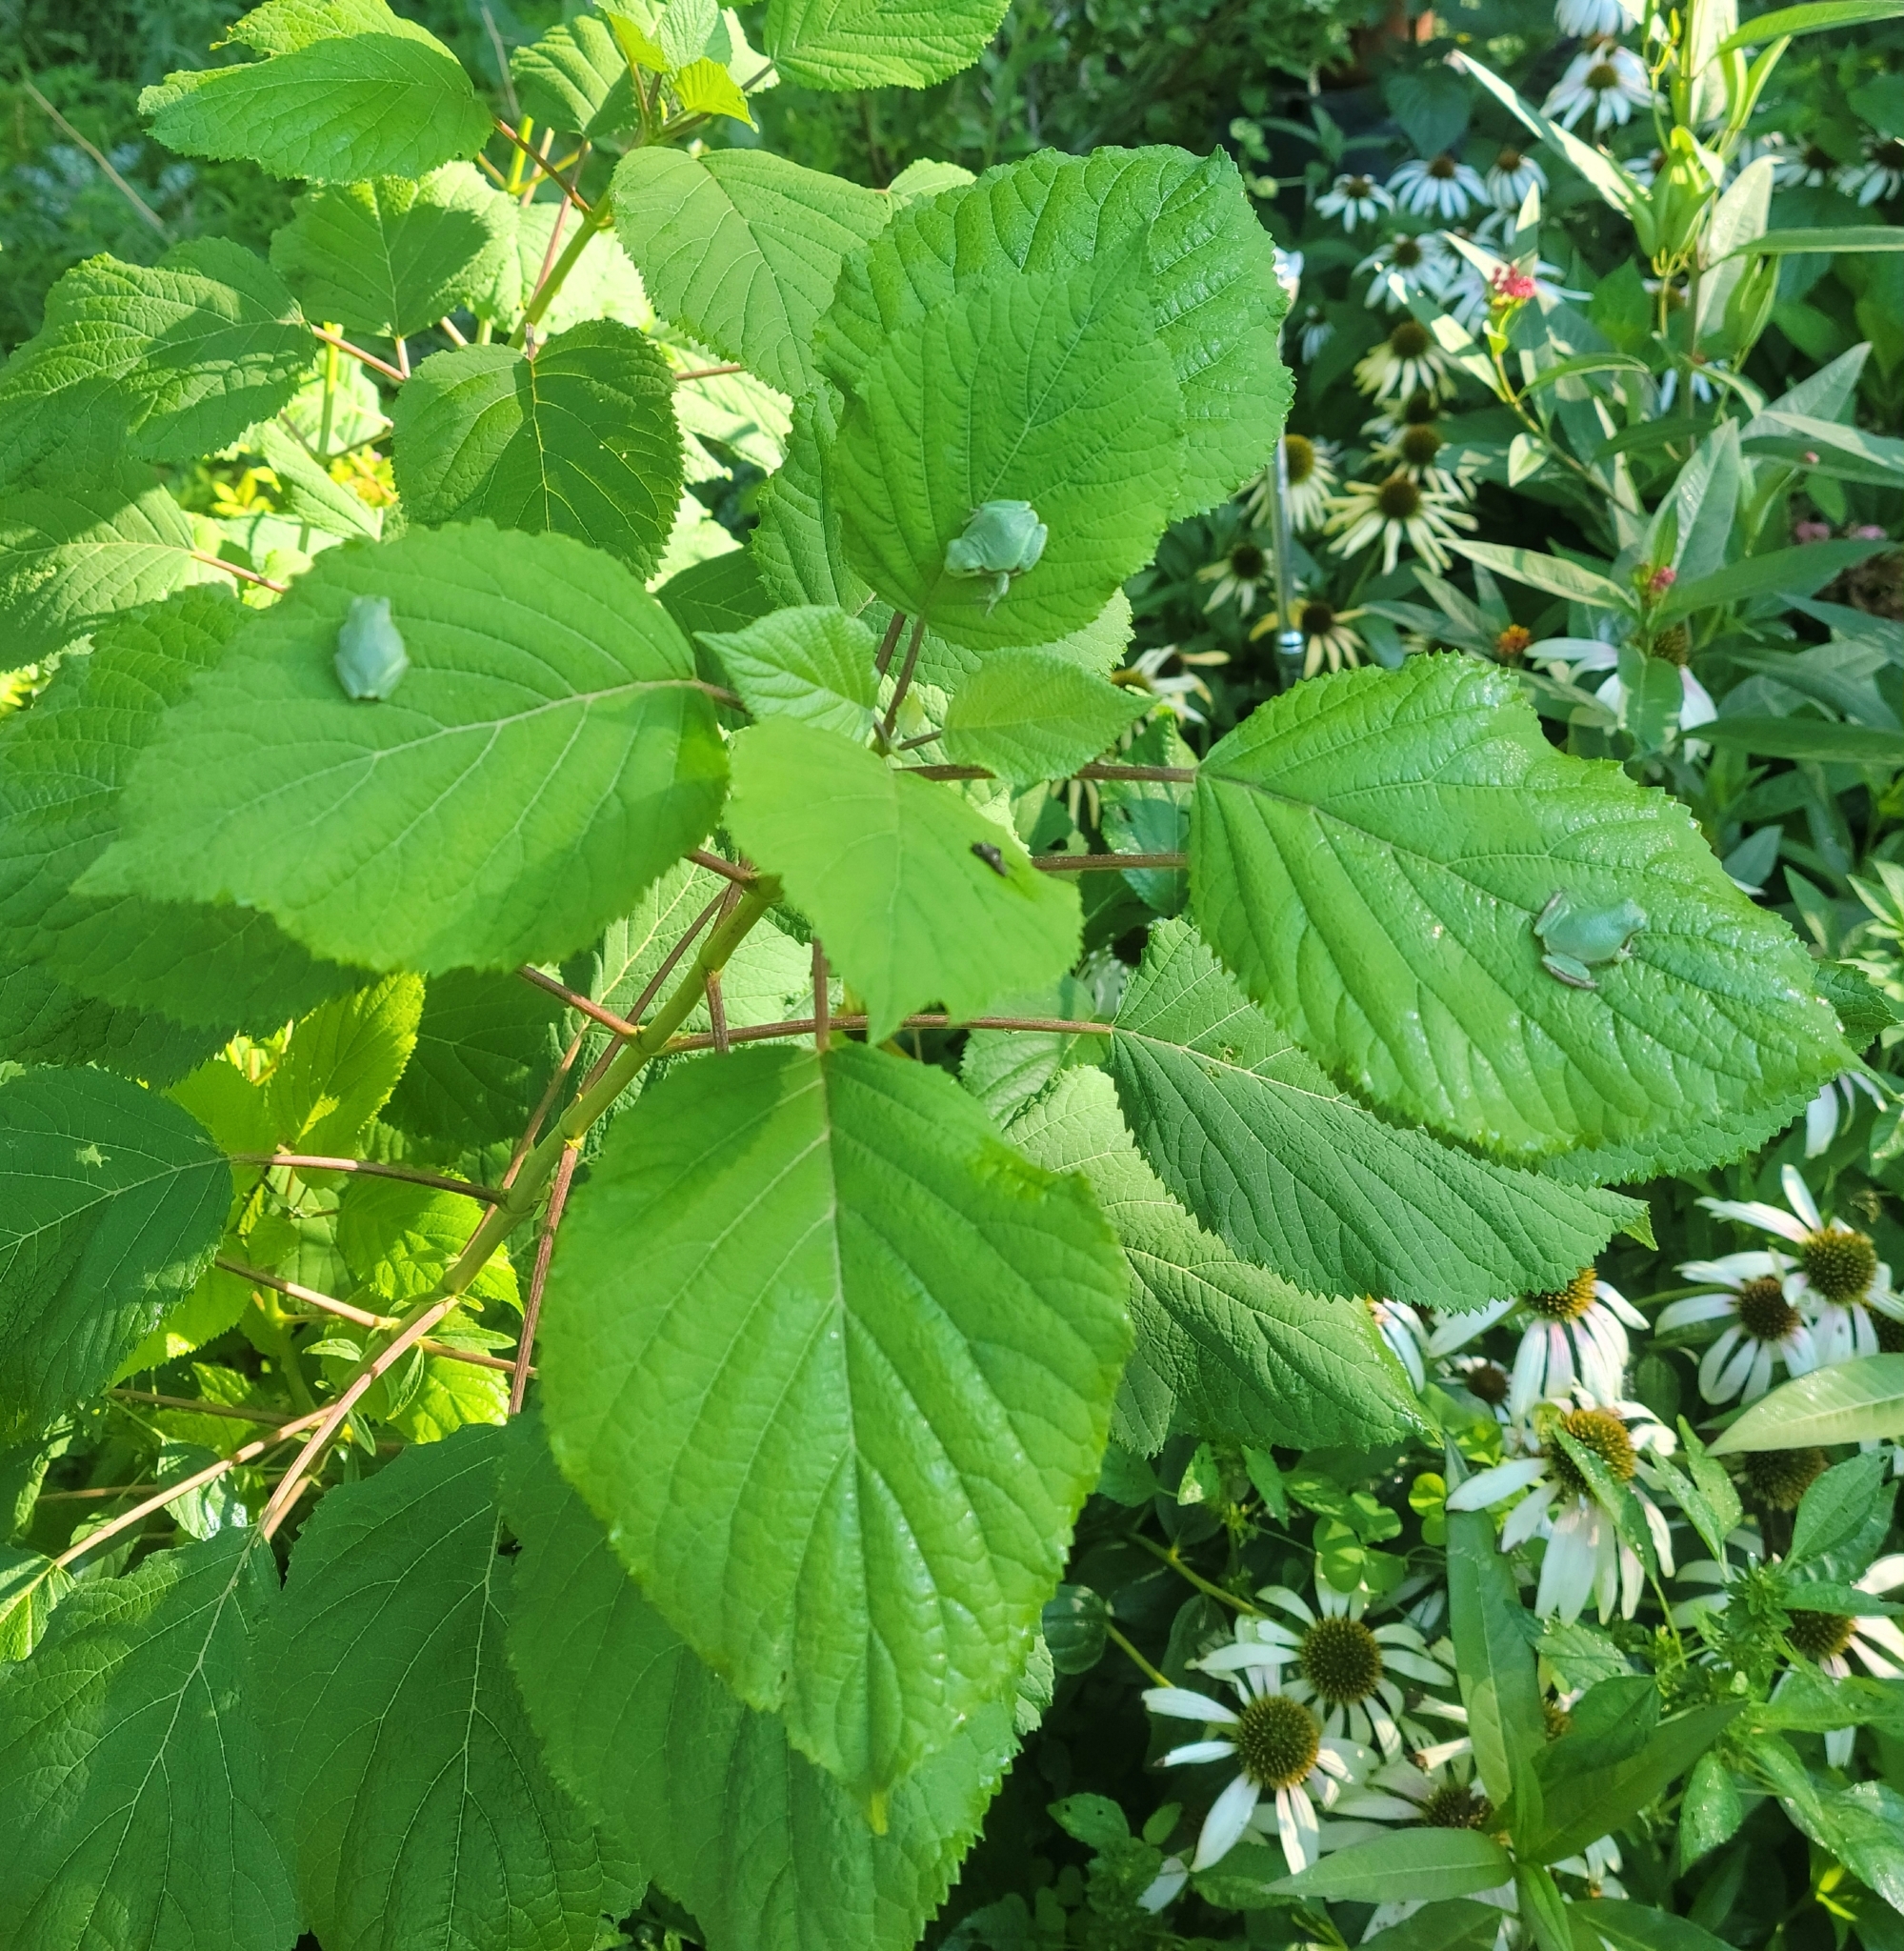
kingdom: Animalia
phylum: Chordata
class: Amphibia
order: Anura
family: Hylidae
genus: Hyla
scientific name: Hyla
